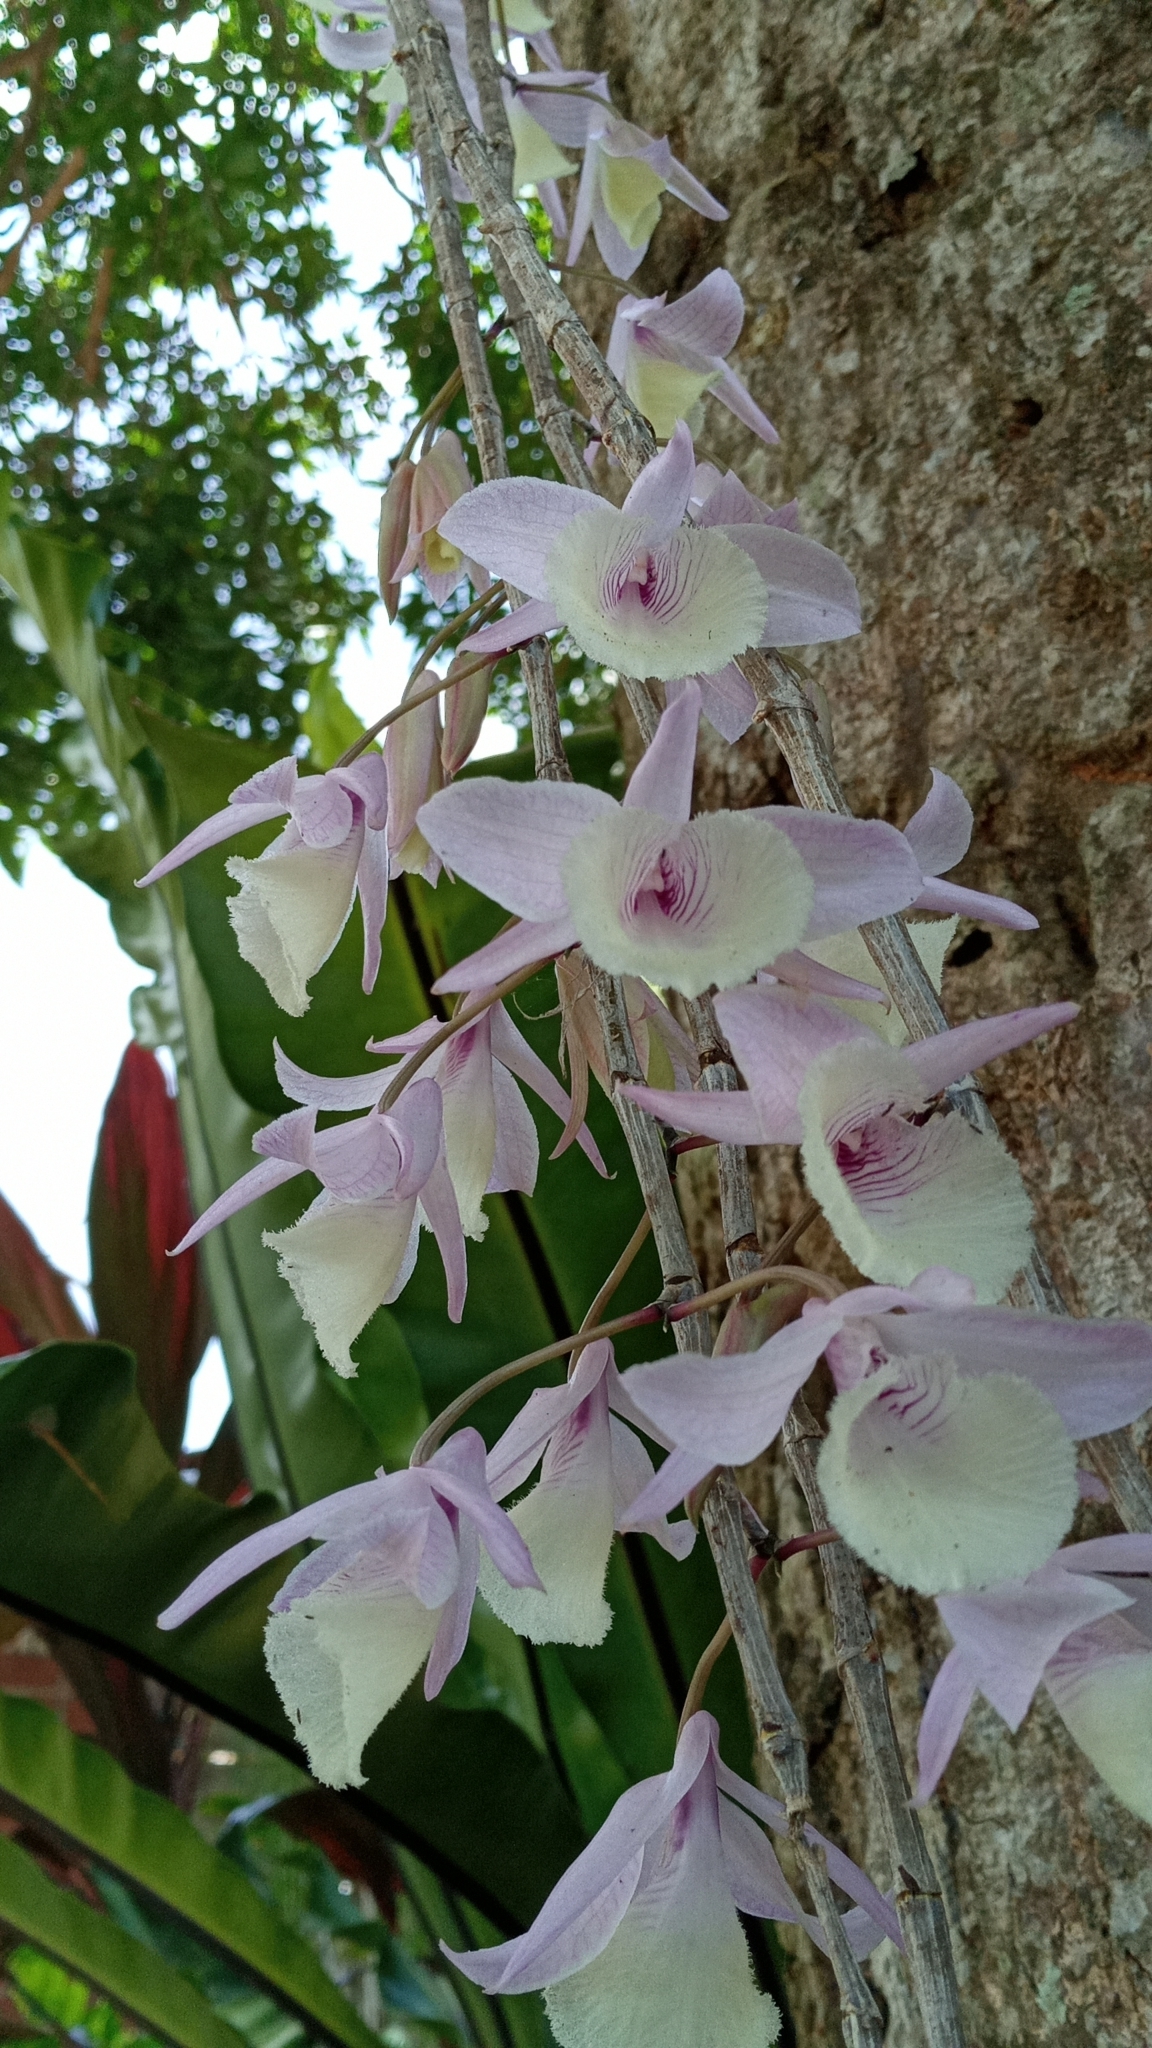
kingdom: Plantae
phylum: Tracheophyta
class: Liliopsida
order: Asparagales
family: Orchidaceae
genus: Dendrobium
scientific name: Dendrobium aphyllum
